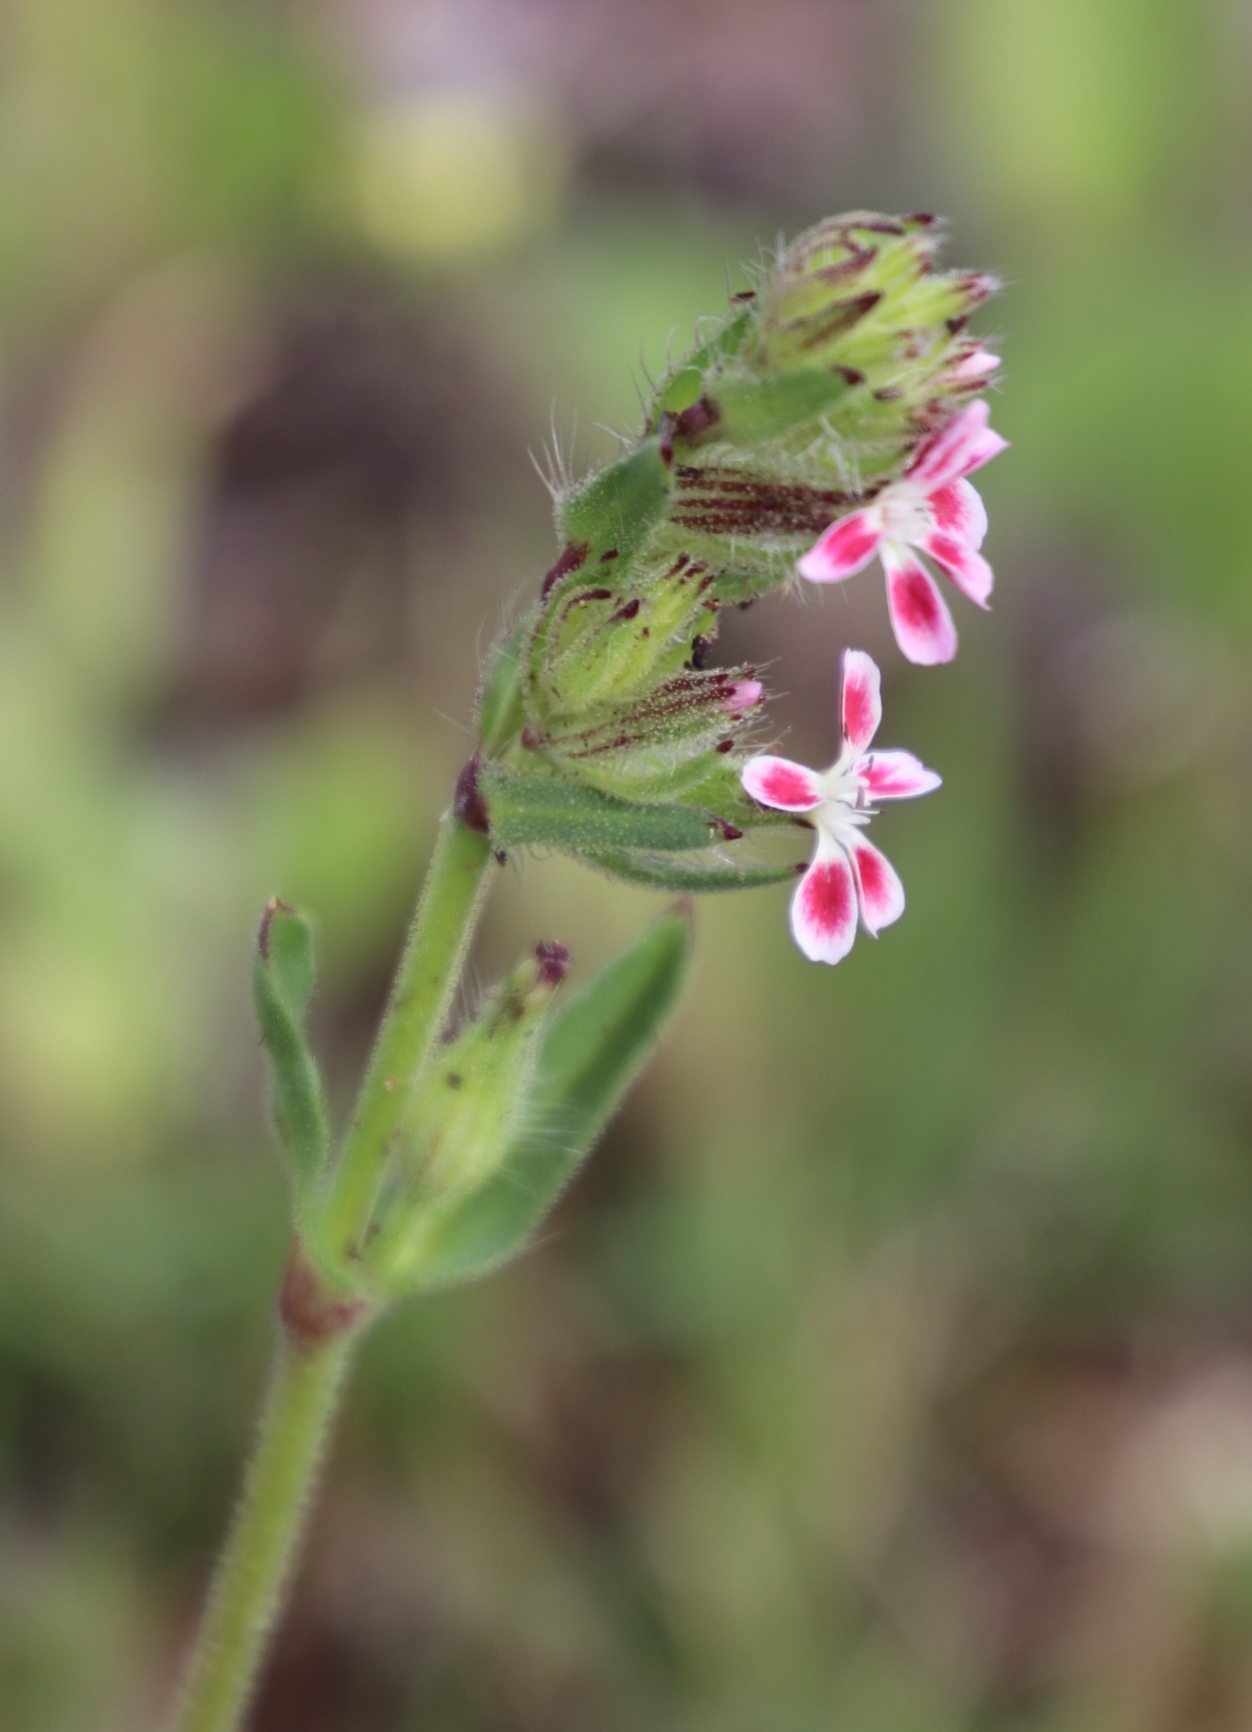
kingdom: Plantae
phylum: Tracheophyta
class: Magnoliopsida
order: Caryophyllales
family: Caryophyllaceae
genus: Silene
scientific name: Silene gallica
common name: Small-flowered catchfly
